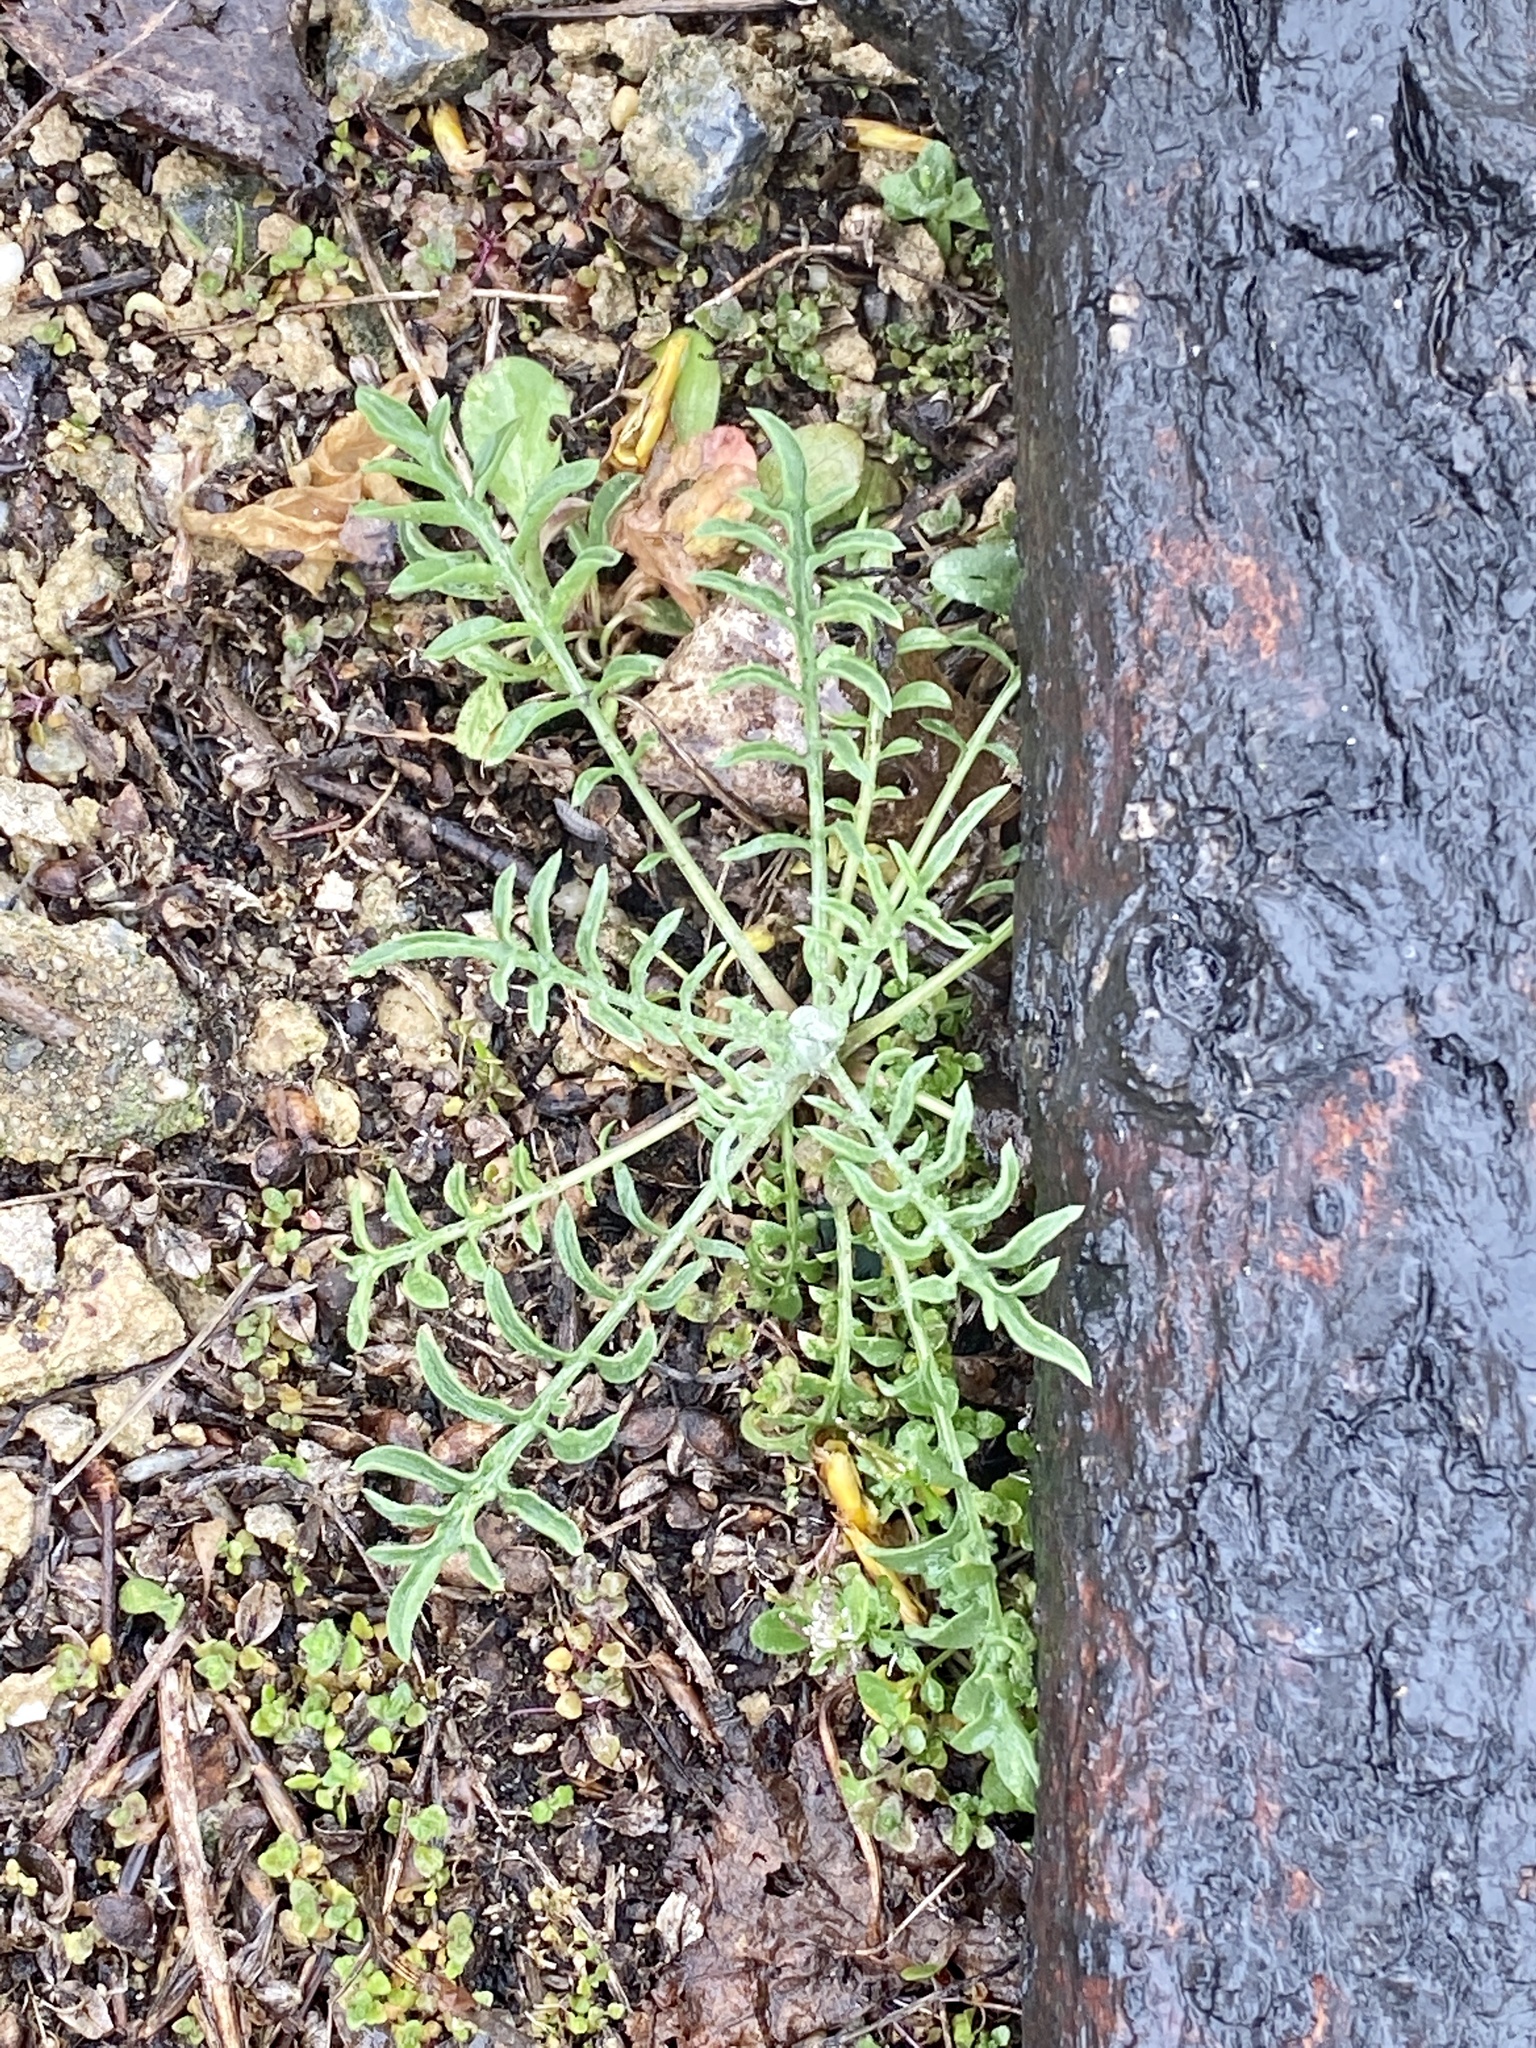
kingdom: Plantae
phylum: Tracheophyta
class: Magnoliopsida
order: Asterales
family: Asteraceae
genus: Centaurea
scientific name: Centaurea stoebe
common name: Spotted knapweed
